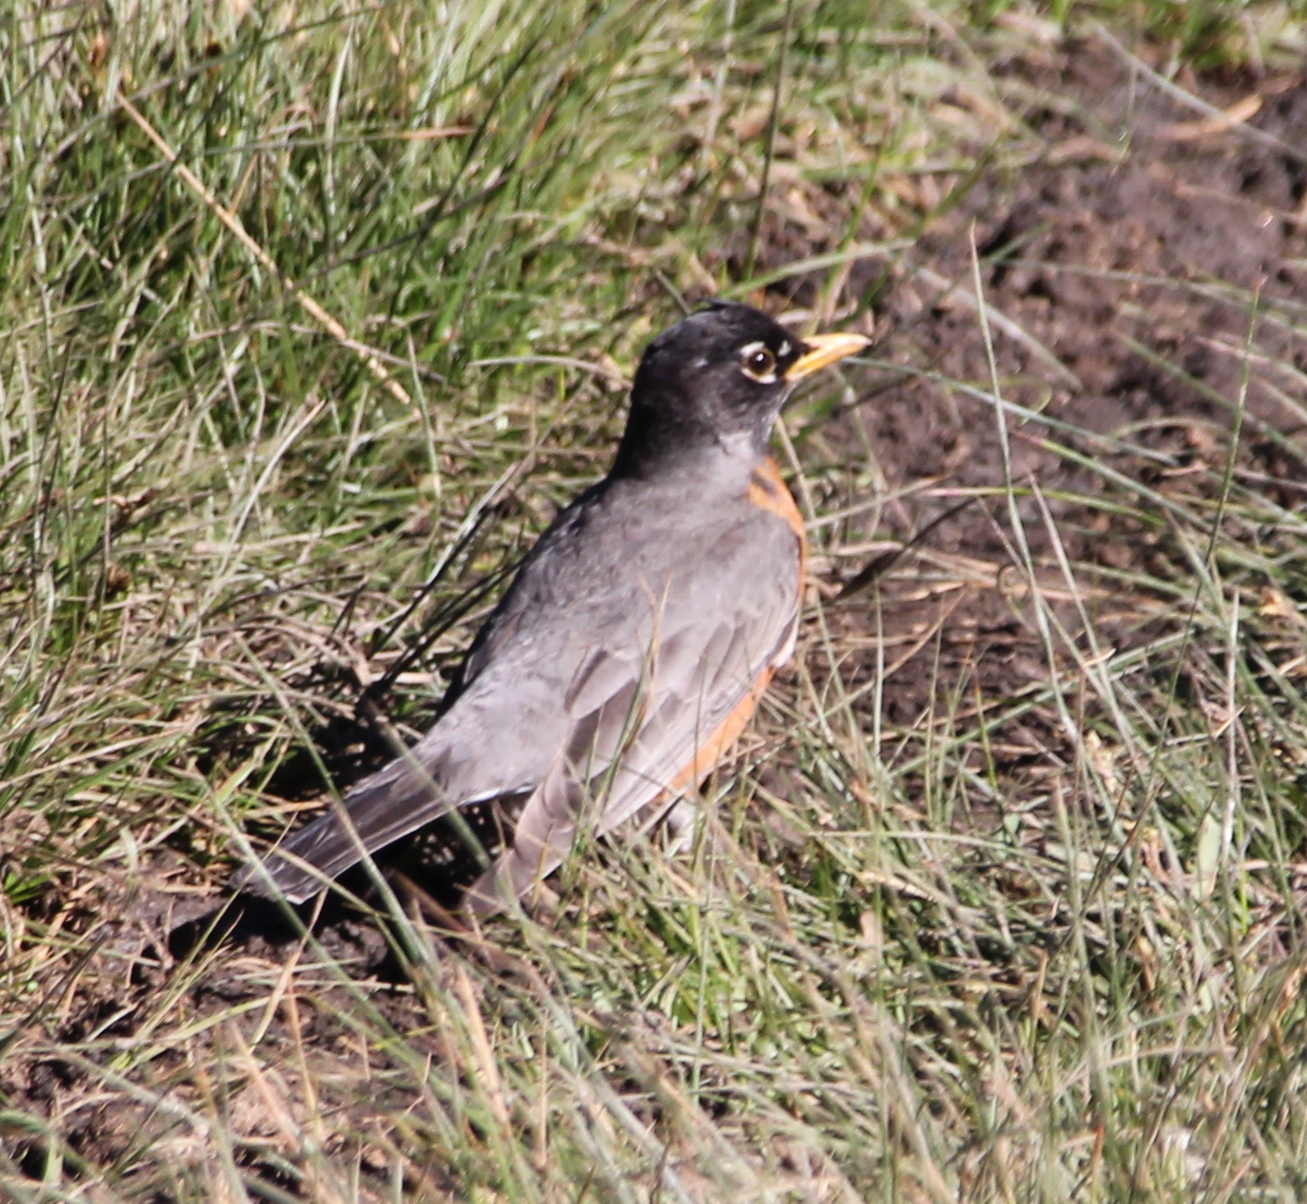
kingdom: Animalia
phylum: Chordata
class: Aves
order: Passeriformes
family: Turdidae
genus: Turdus
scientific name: Turdus migratorius
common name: American robin
